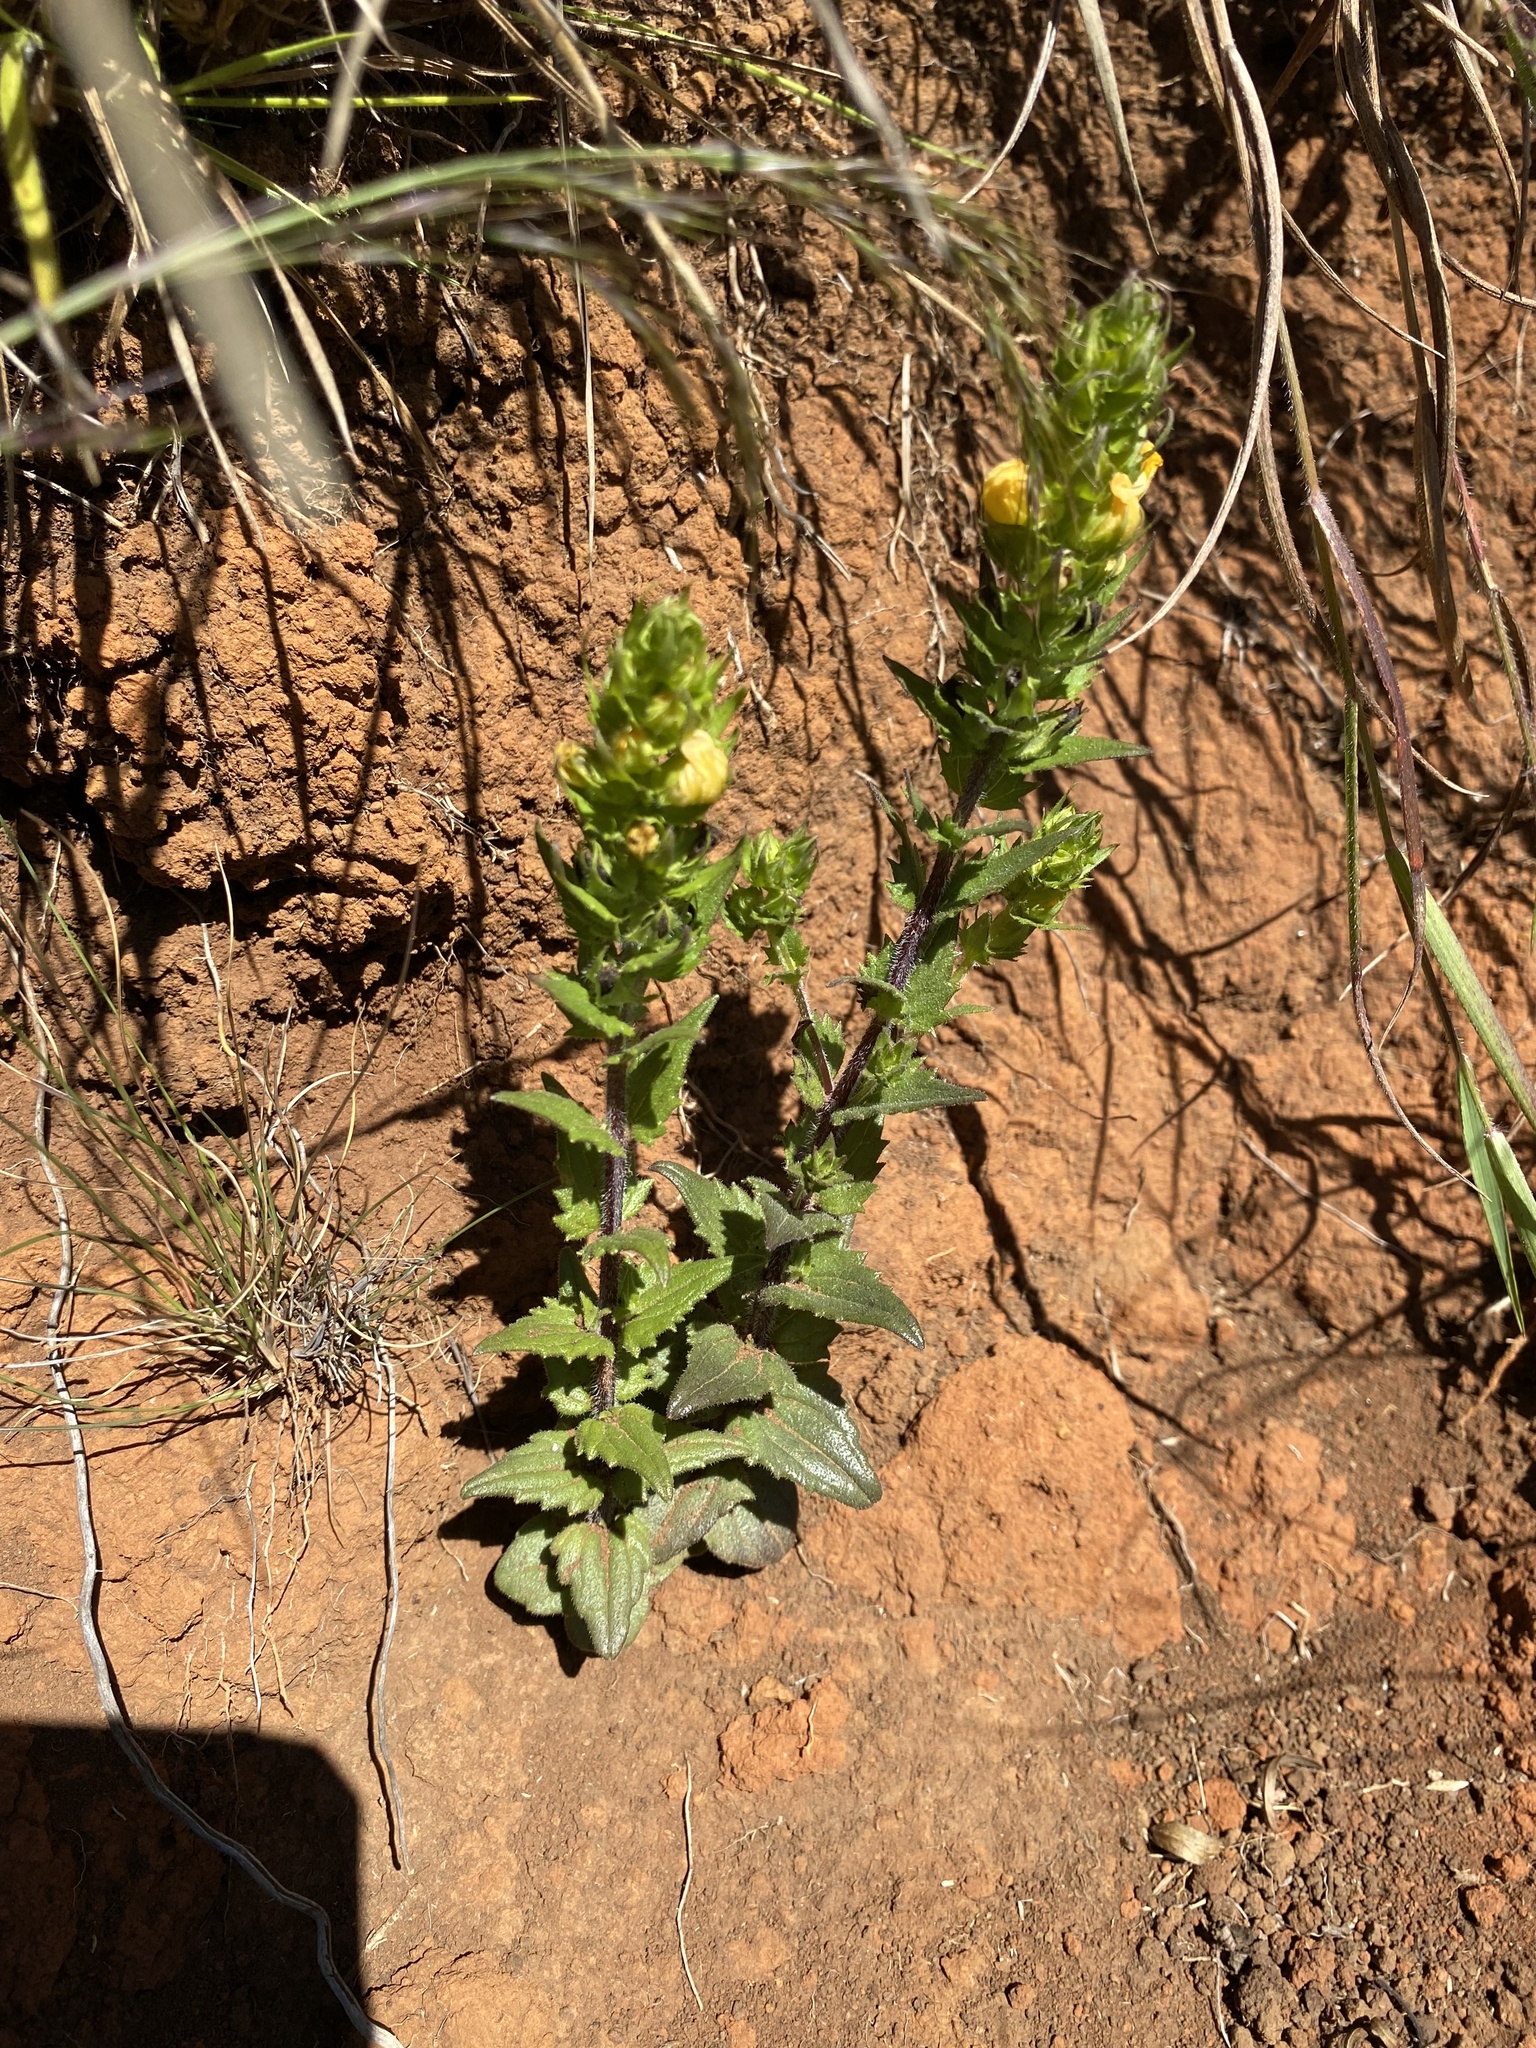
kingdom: Plantae
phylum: Tracheophyta
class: Magnoliopsida
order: Lamiales
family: Orobanchaceae
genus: Alectra
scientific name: Alectra sessiliflora
